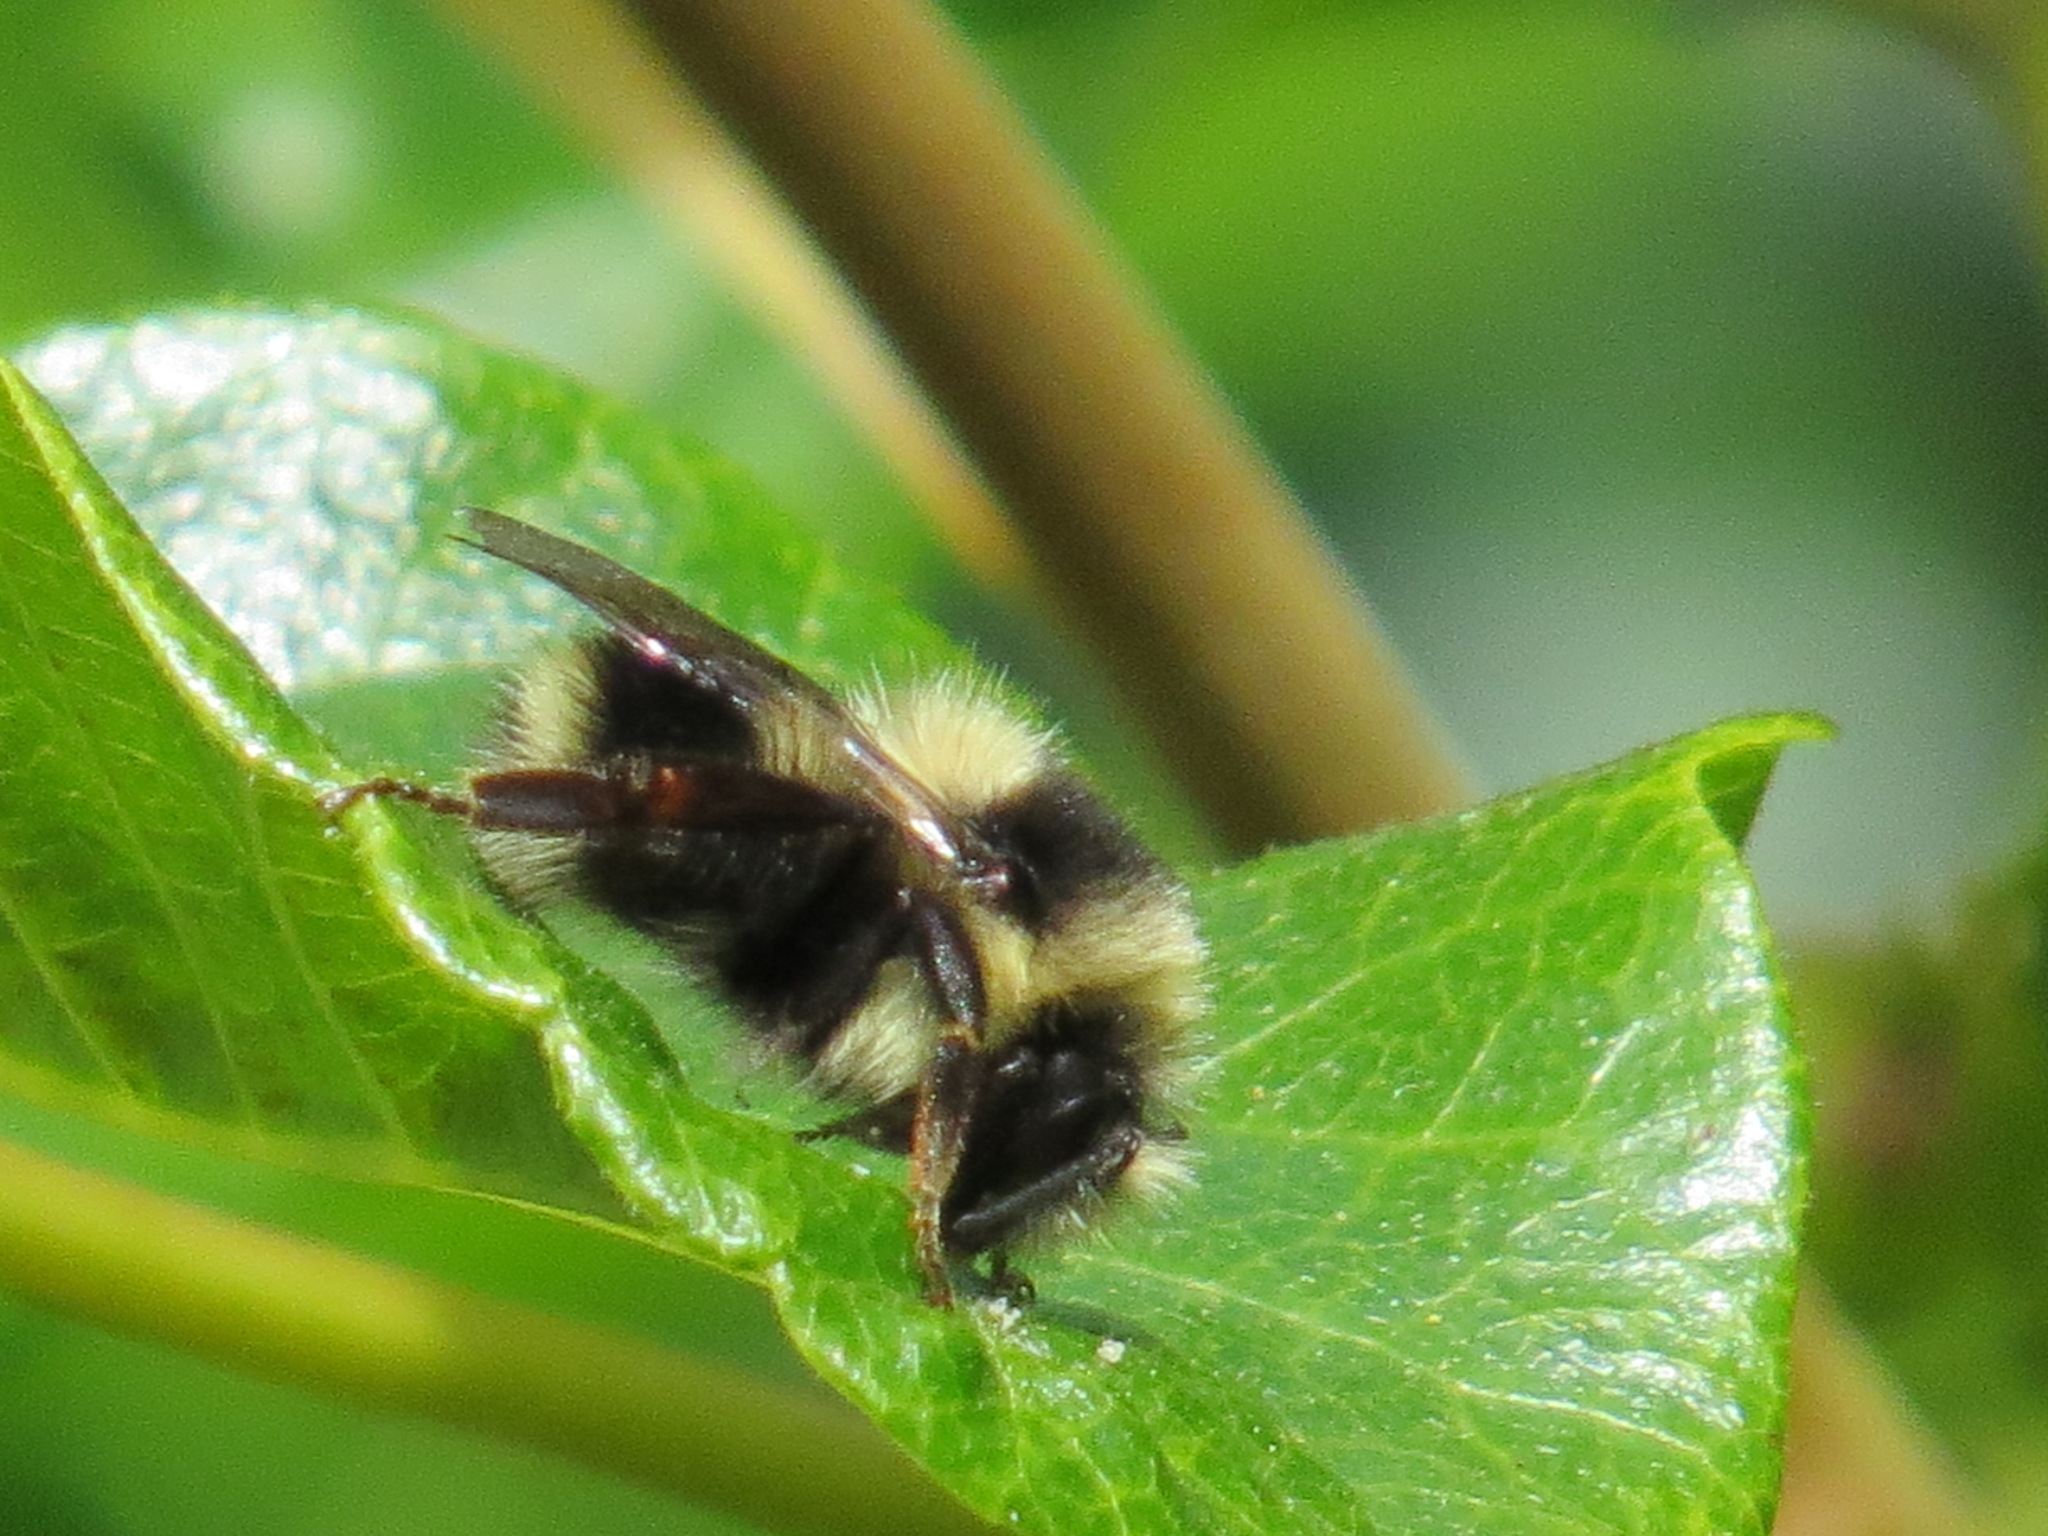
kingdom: Animalia
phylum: Arthropoda
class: Insecta
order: Hymenoptera
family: Apidae
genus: Bombus
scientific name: Bombus melanopygus
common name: Black tail bumble bee
